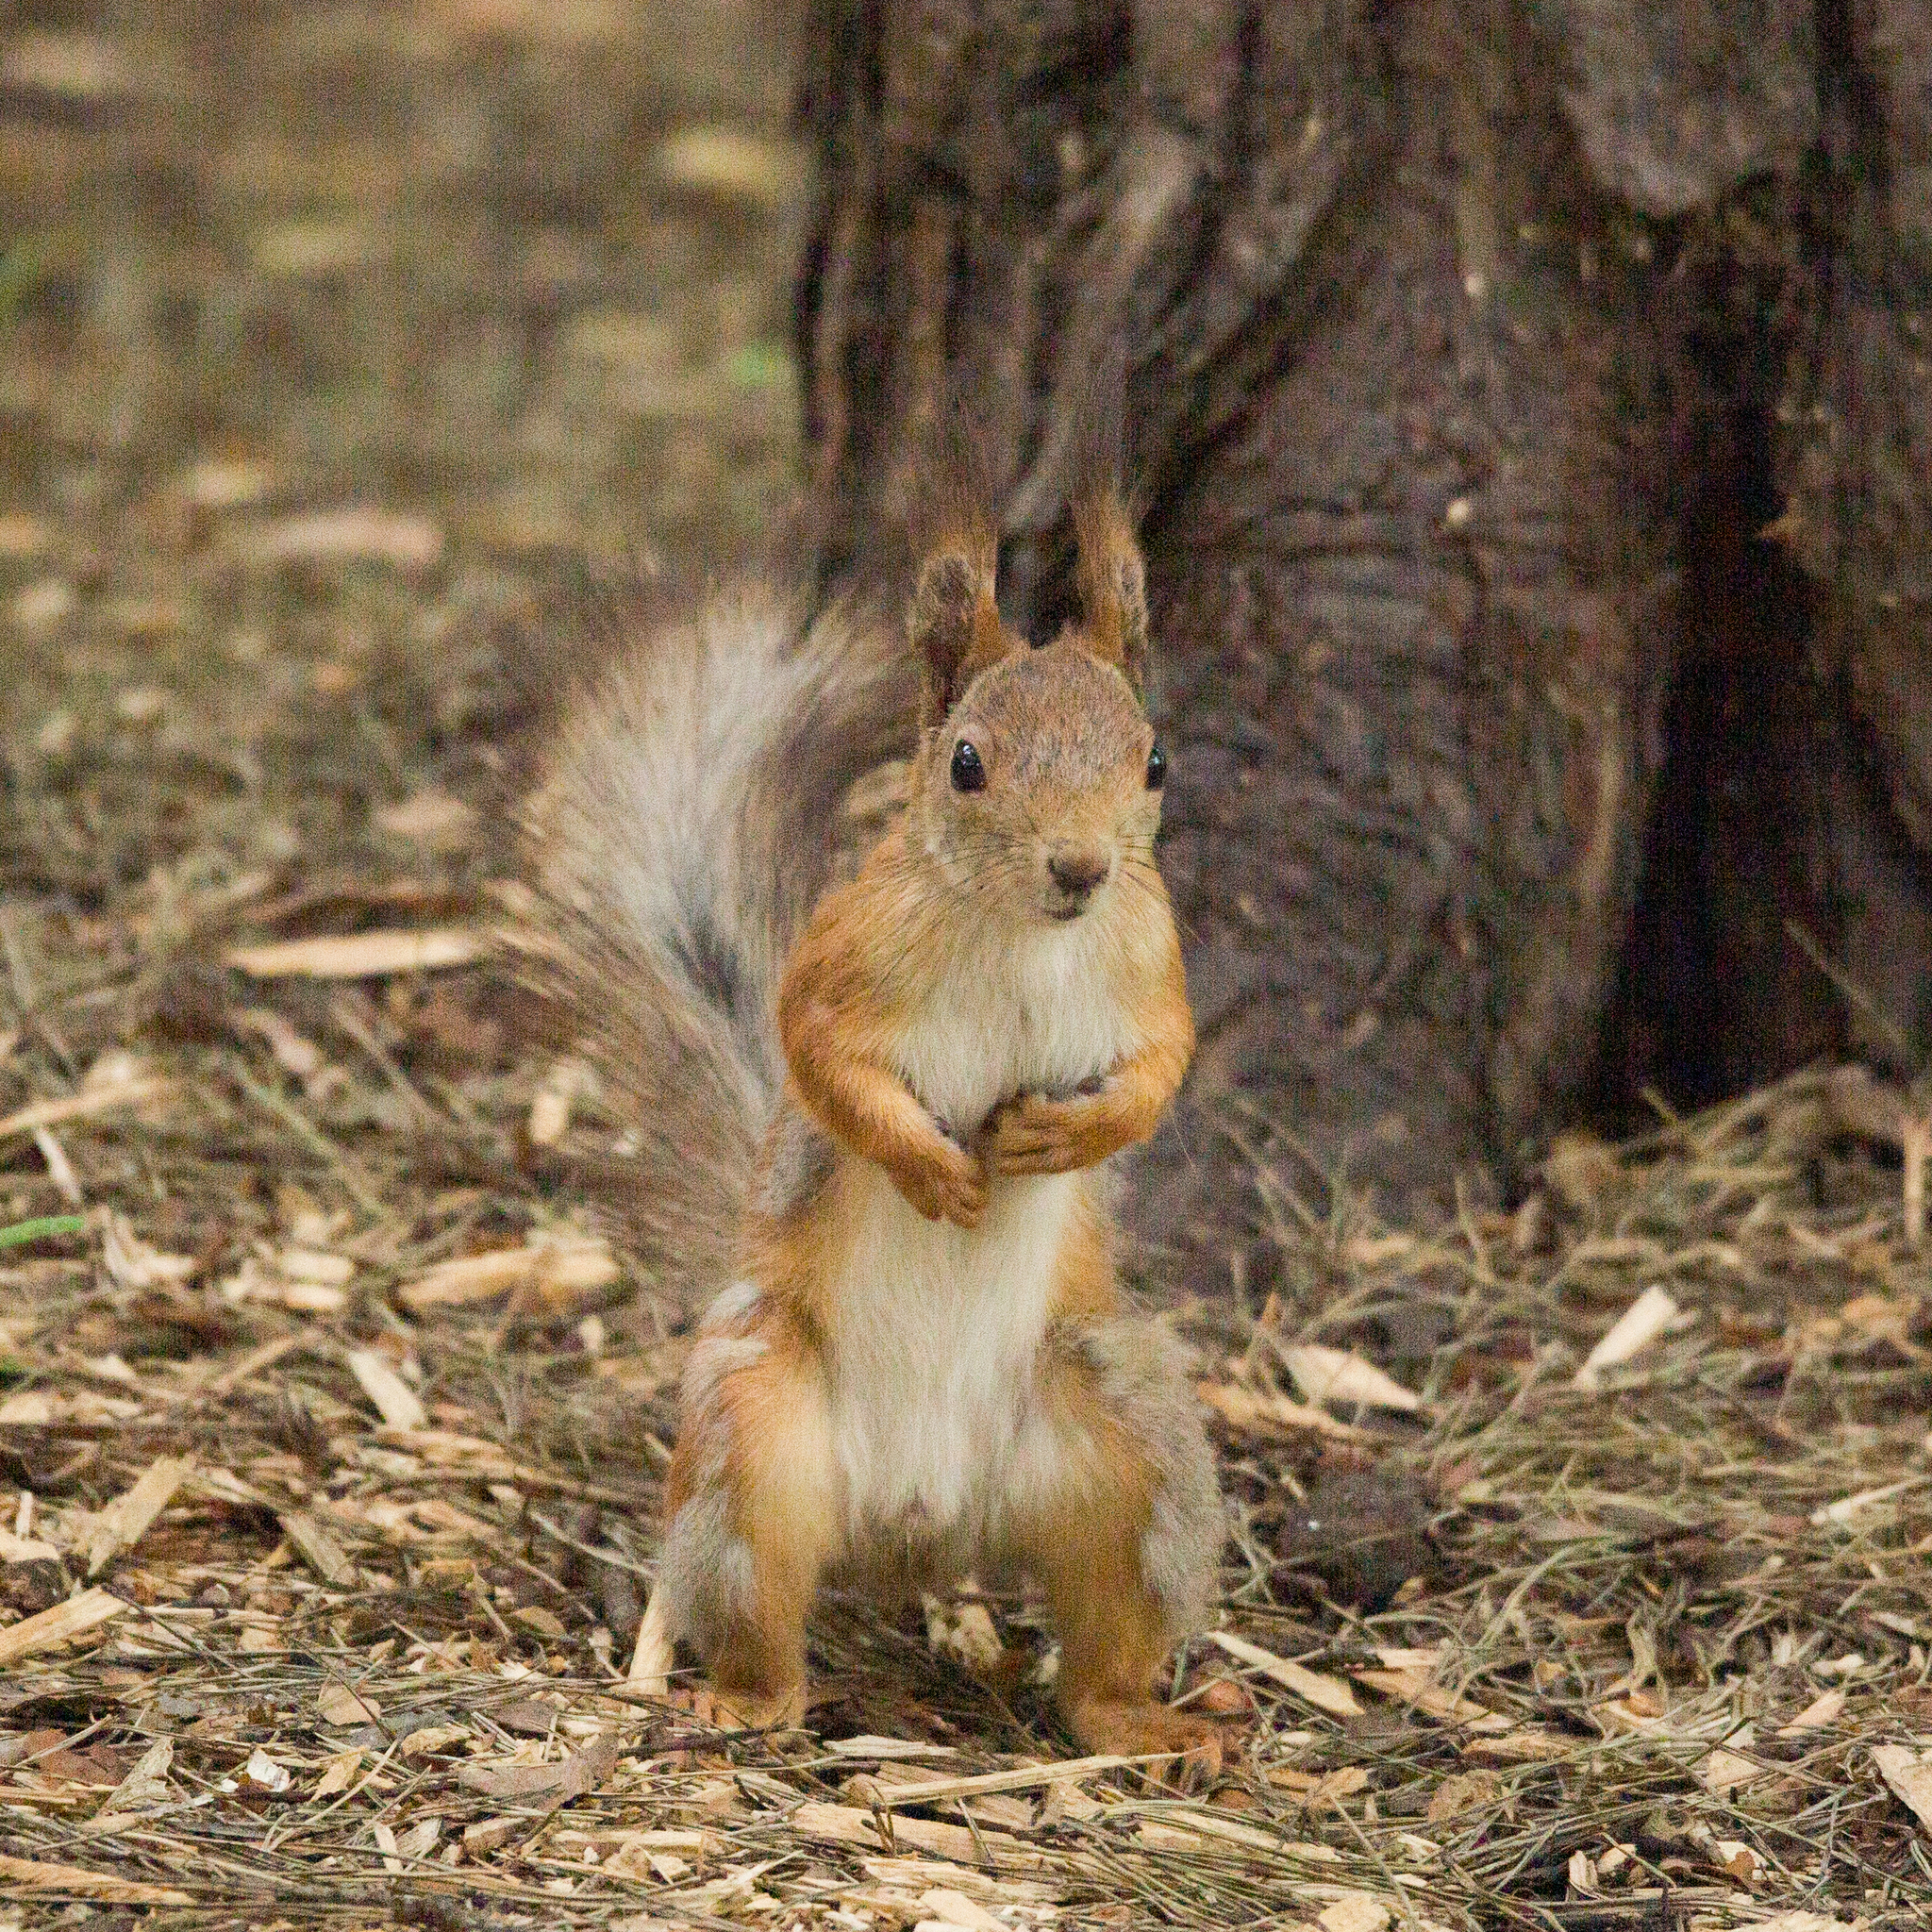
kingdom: Animalia
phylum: Chordata
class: Mammalia
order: Rodentia
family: Sciuridae
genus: Sciurus
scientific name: Sciurus vulgaris
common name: Eurasian red squirrel
